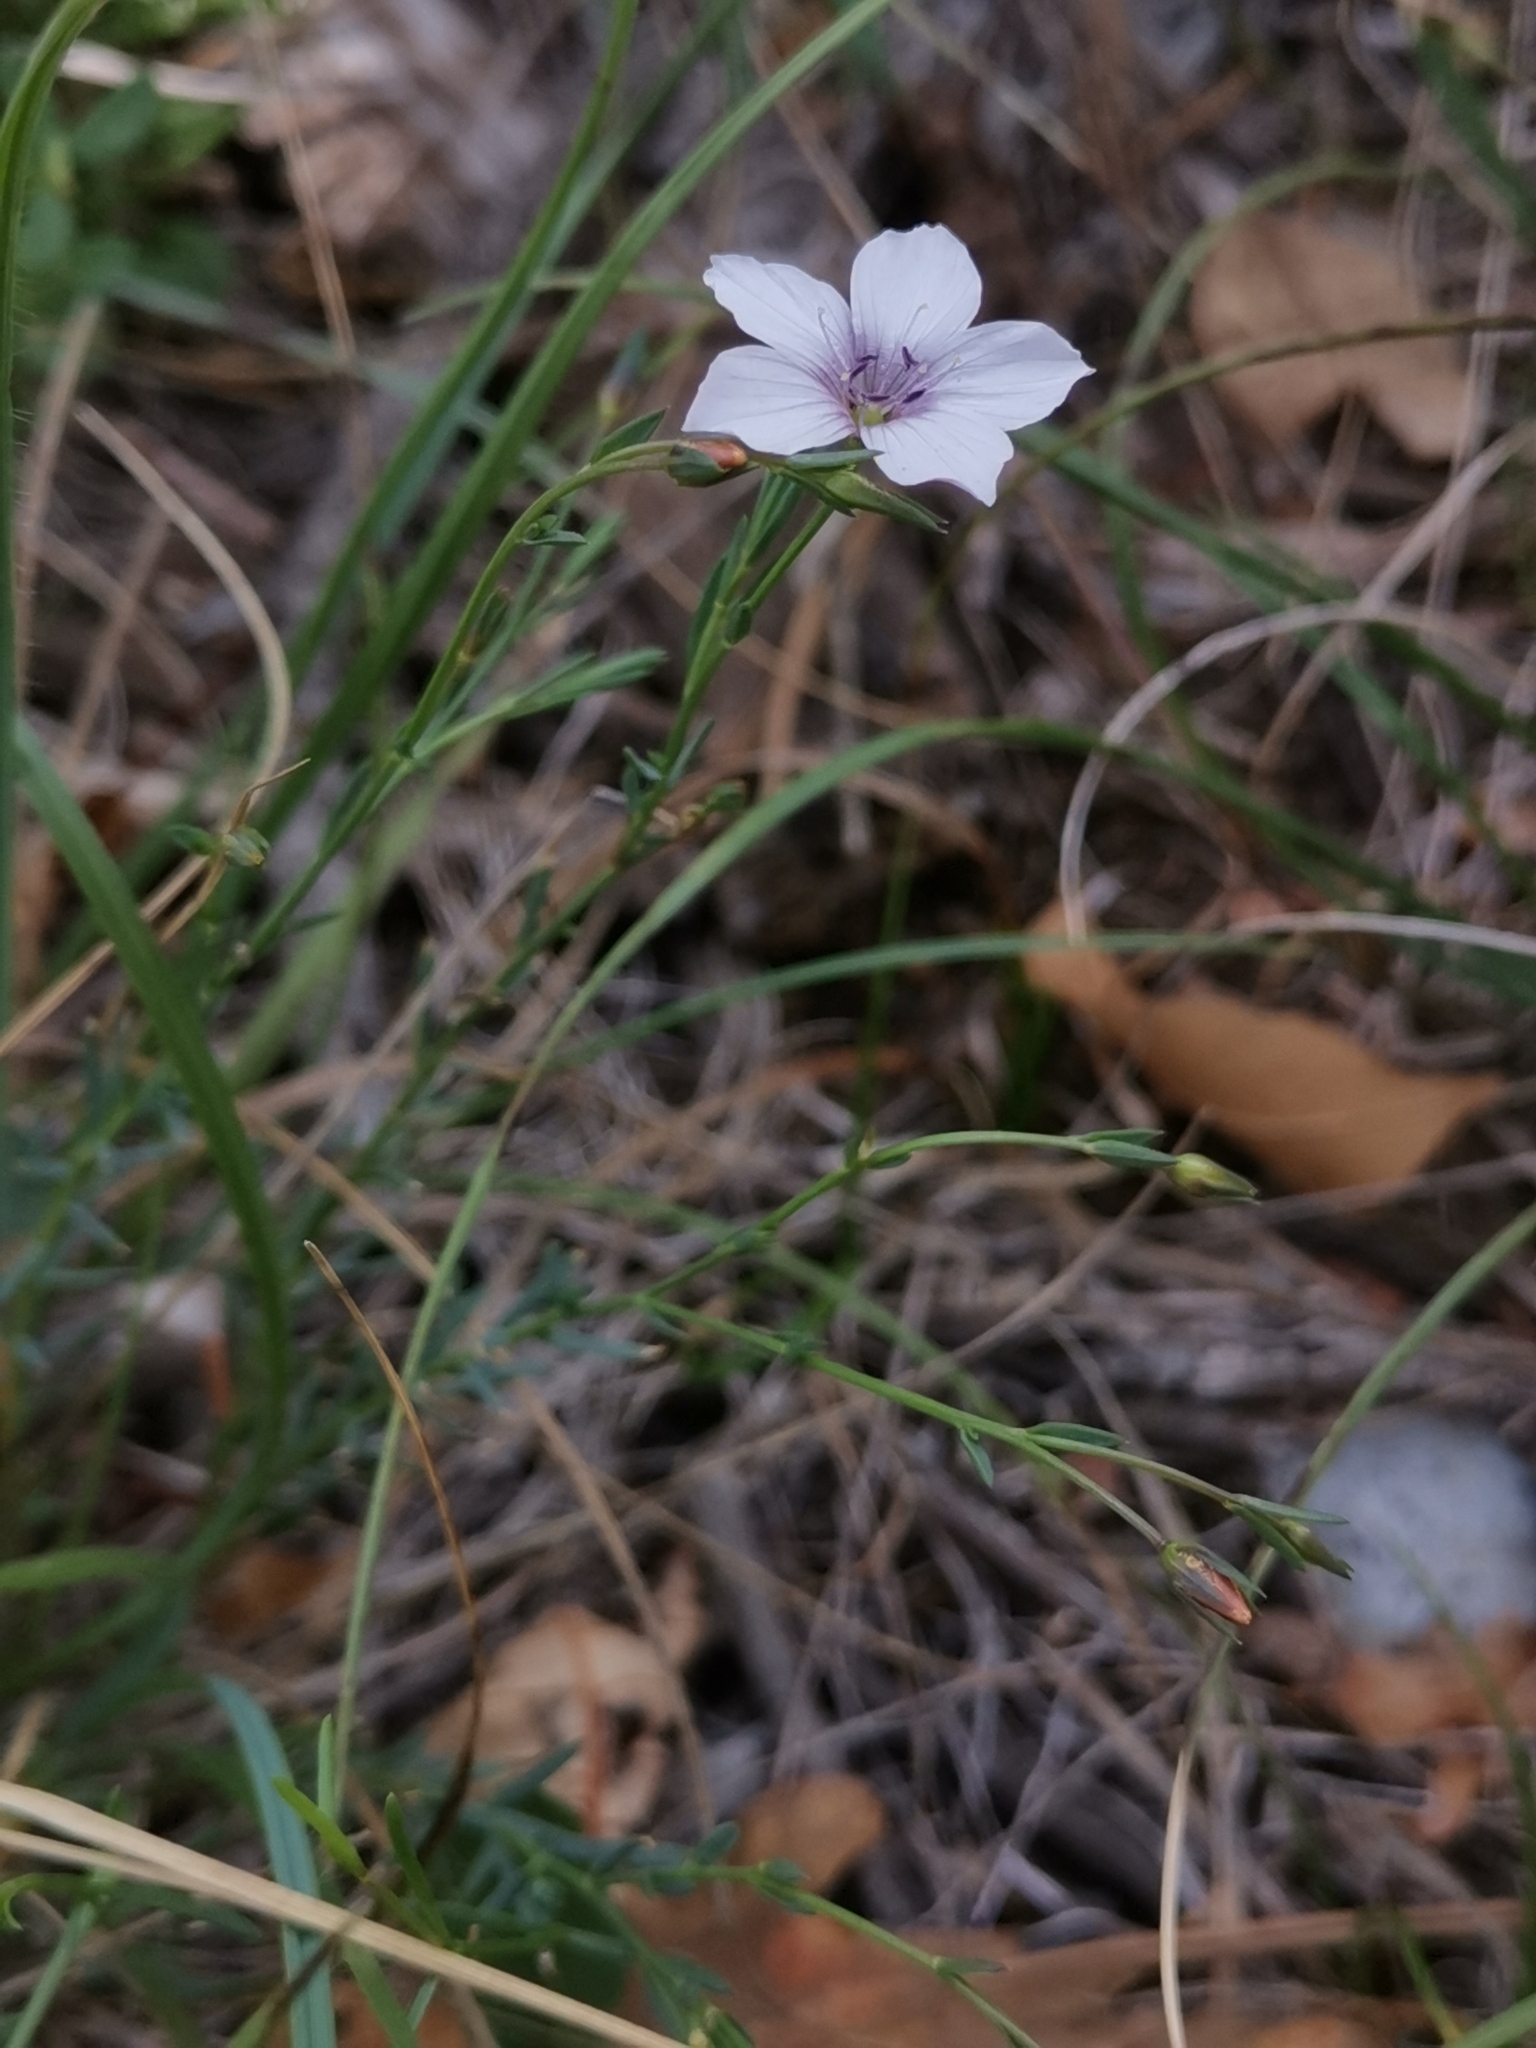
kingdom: Plantae
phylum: Tracheophyta
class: Magnoliopsida
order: Malpighiales
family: Linaceae
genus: Linum
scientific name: Linum tenuifolium
